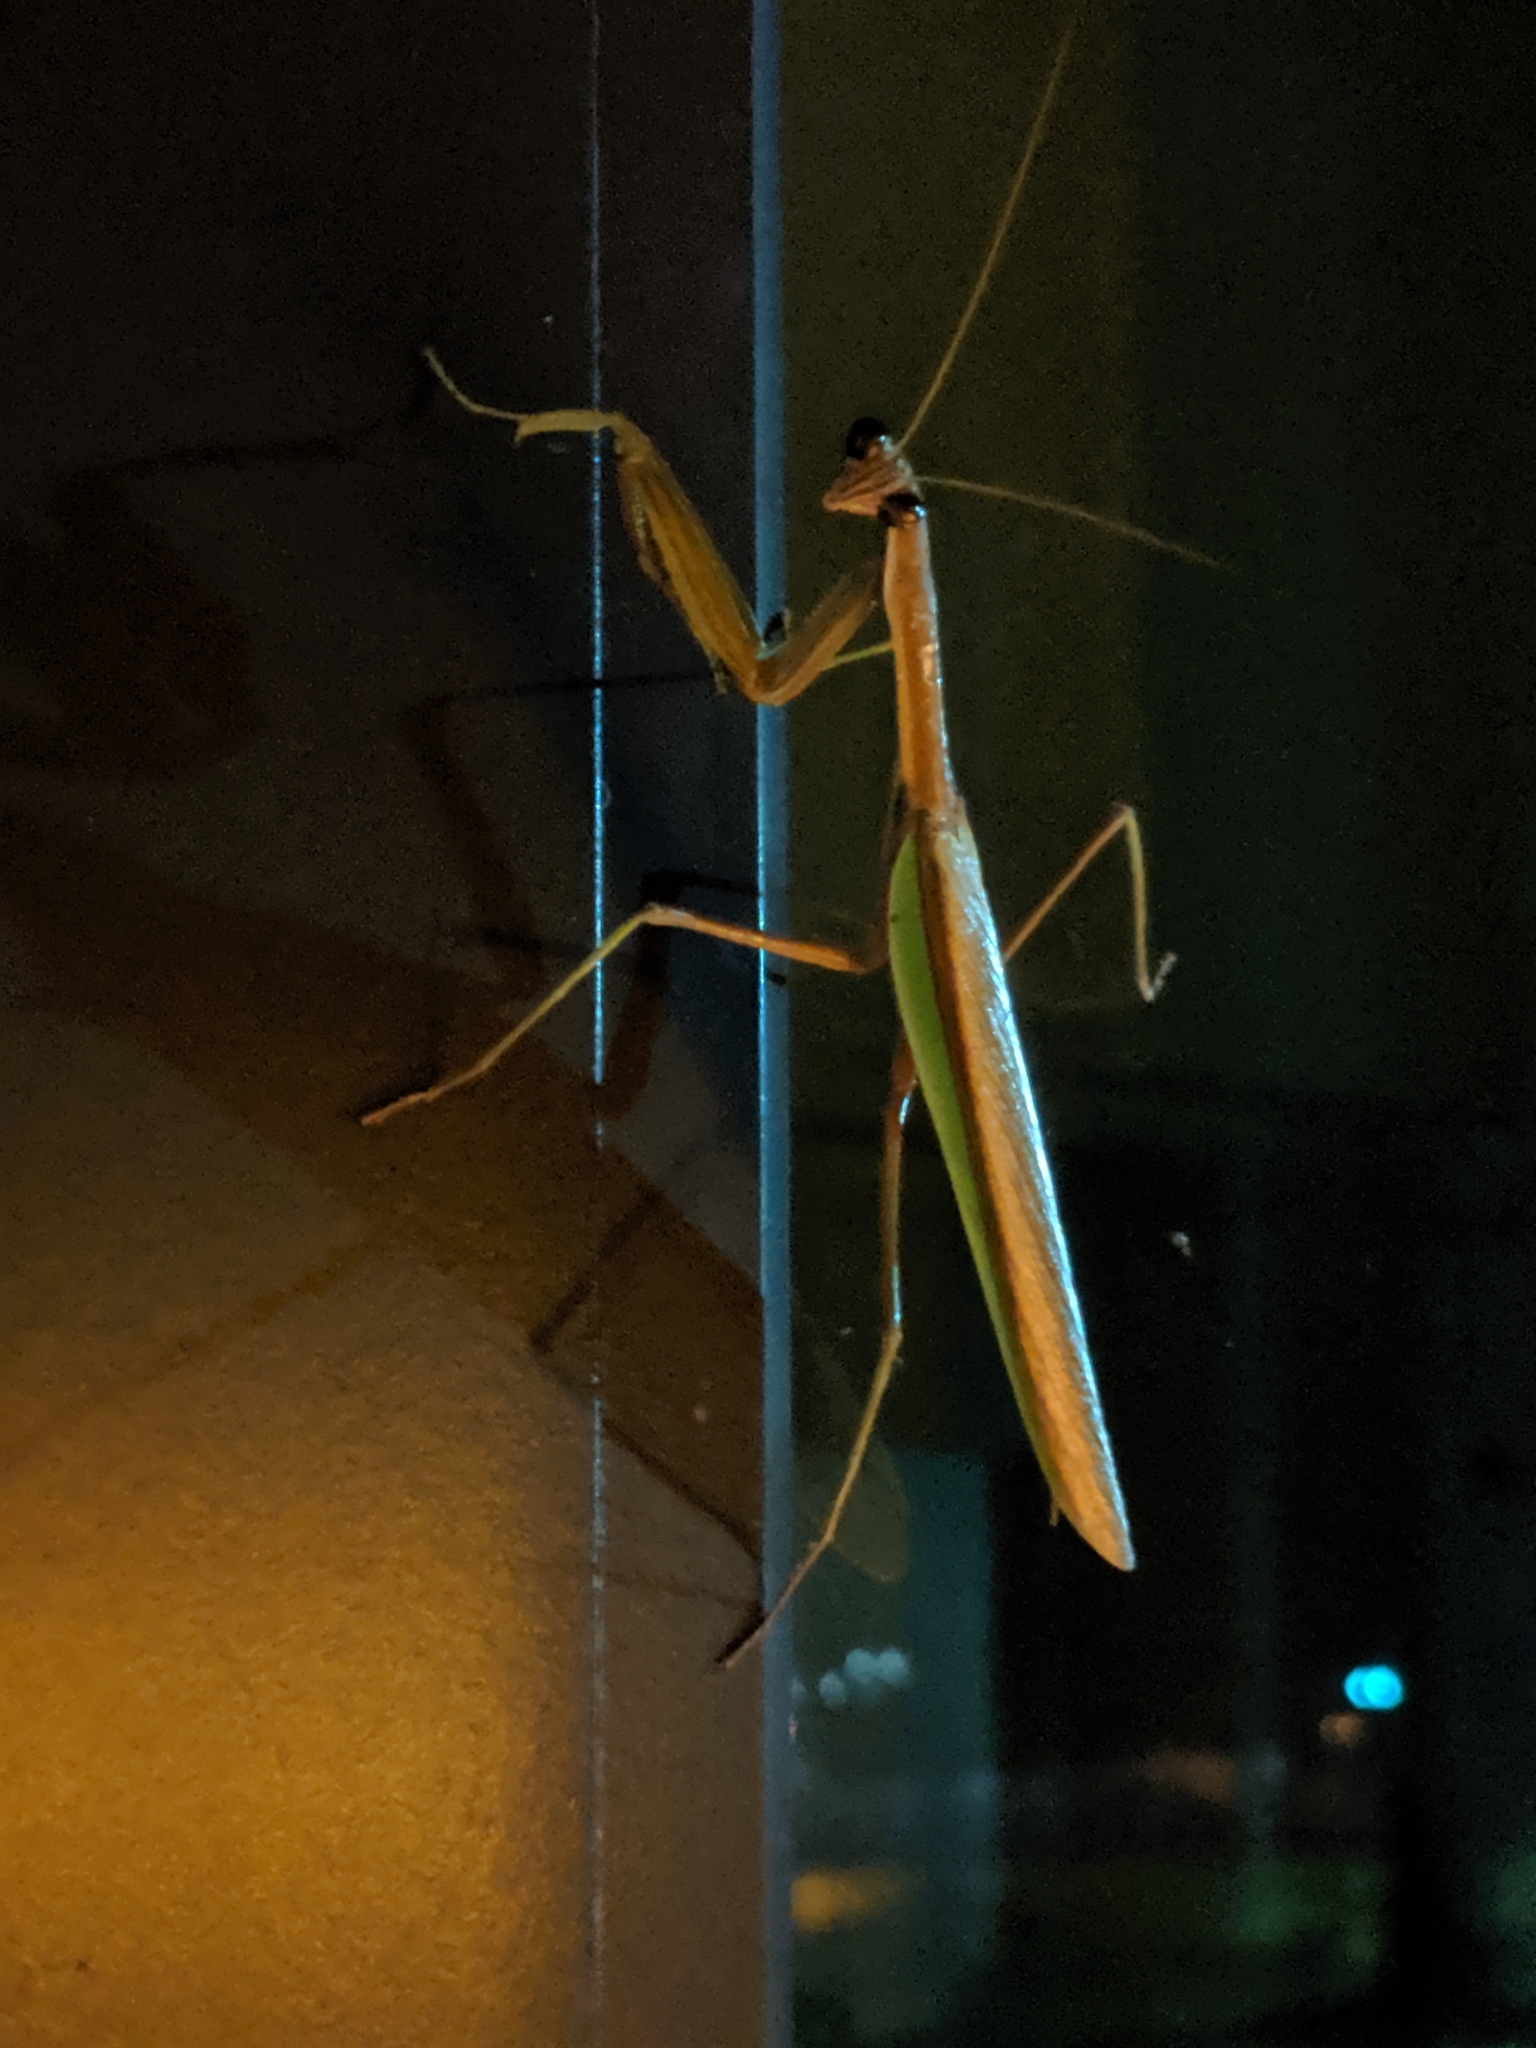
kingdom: Animalia
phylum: Arthropoda
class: Insecta
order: Mantodea
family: Mantidae
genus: Tenodera
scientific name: Tenodera sinensis
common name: Chinese mantis
